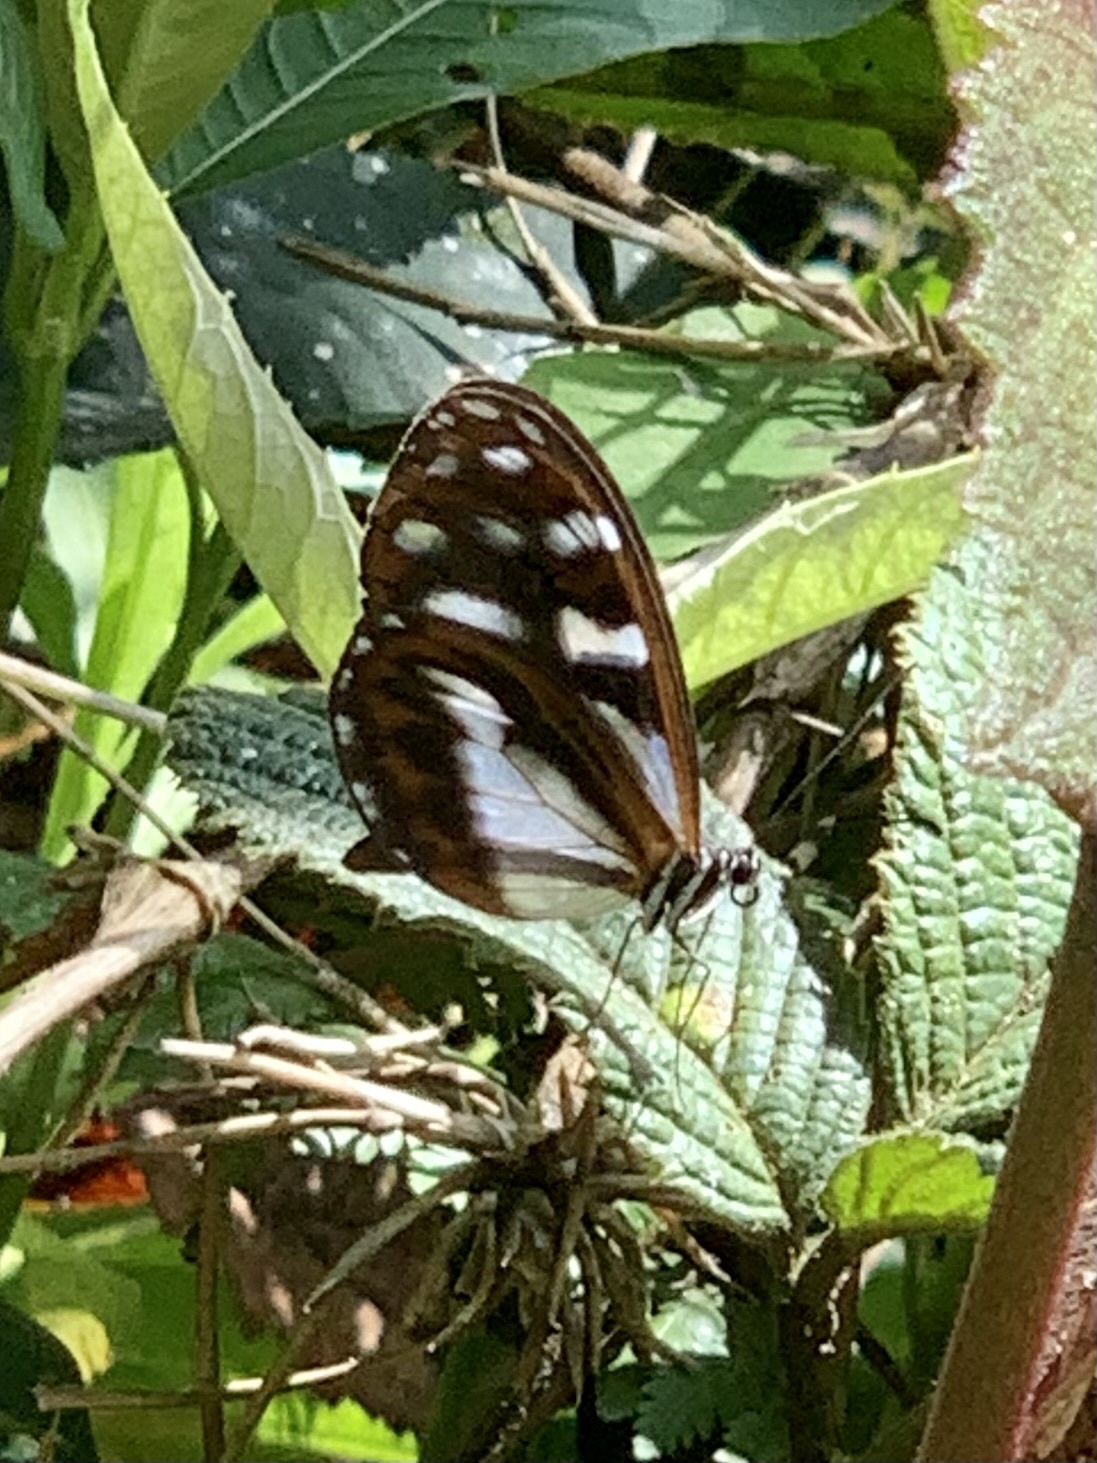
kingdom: Animalia
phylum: Arthropoda
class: Insecta
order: Lepidoptera
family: Nymphalidae
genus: Oleria
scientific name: Oleria radina
